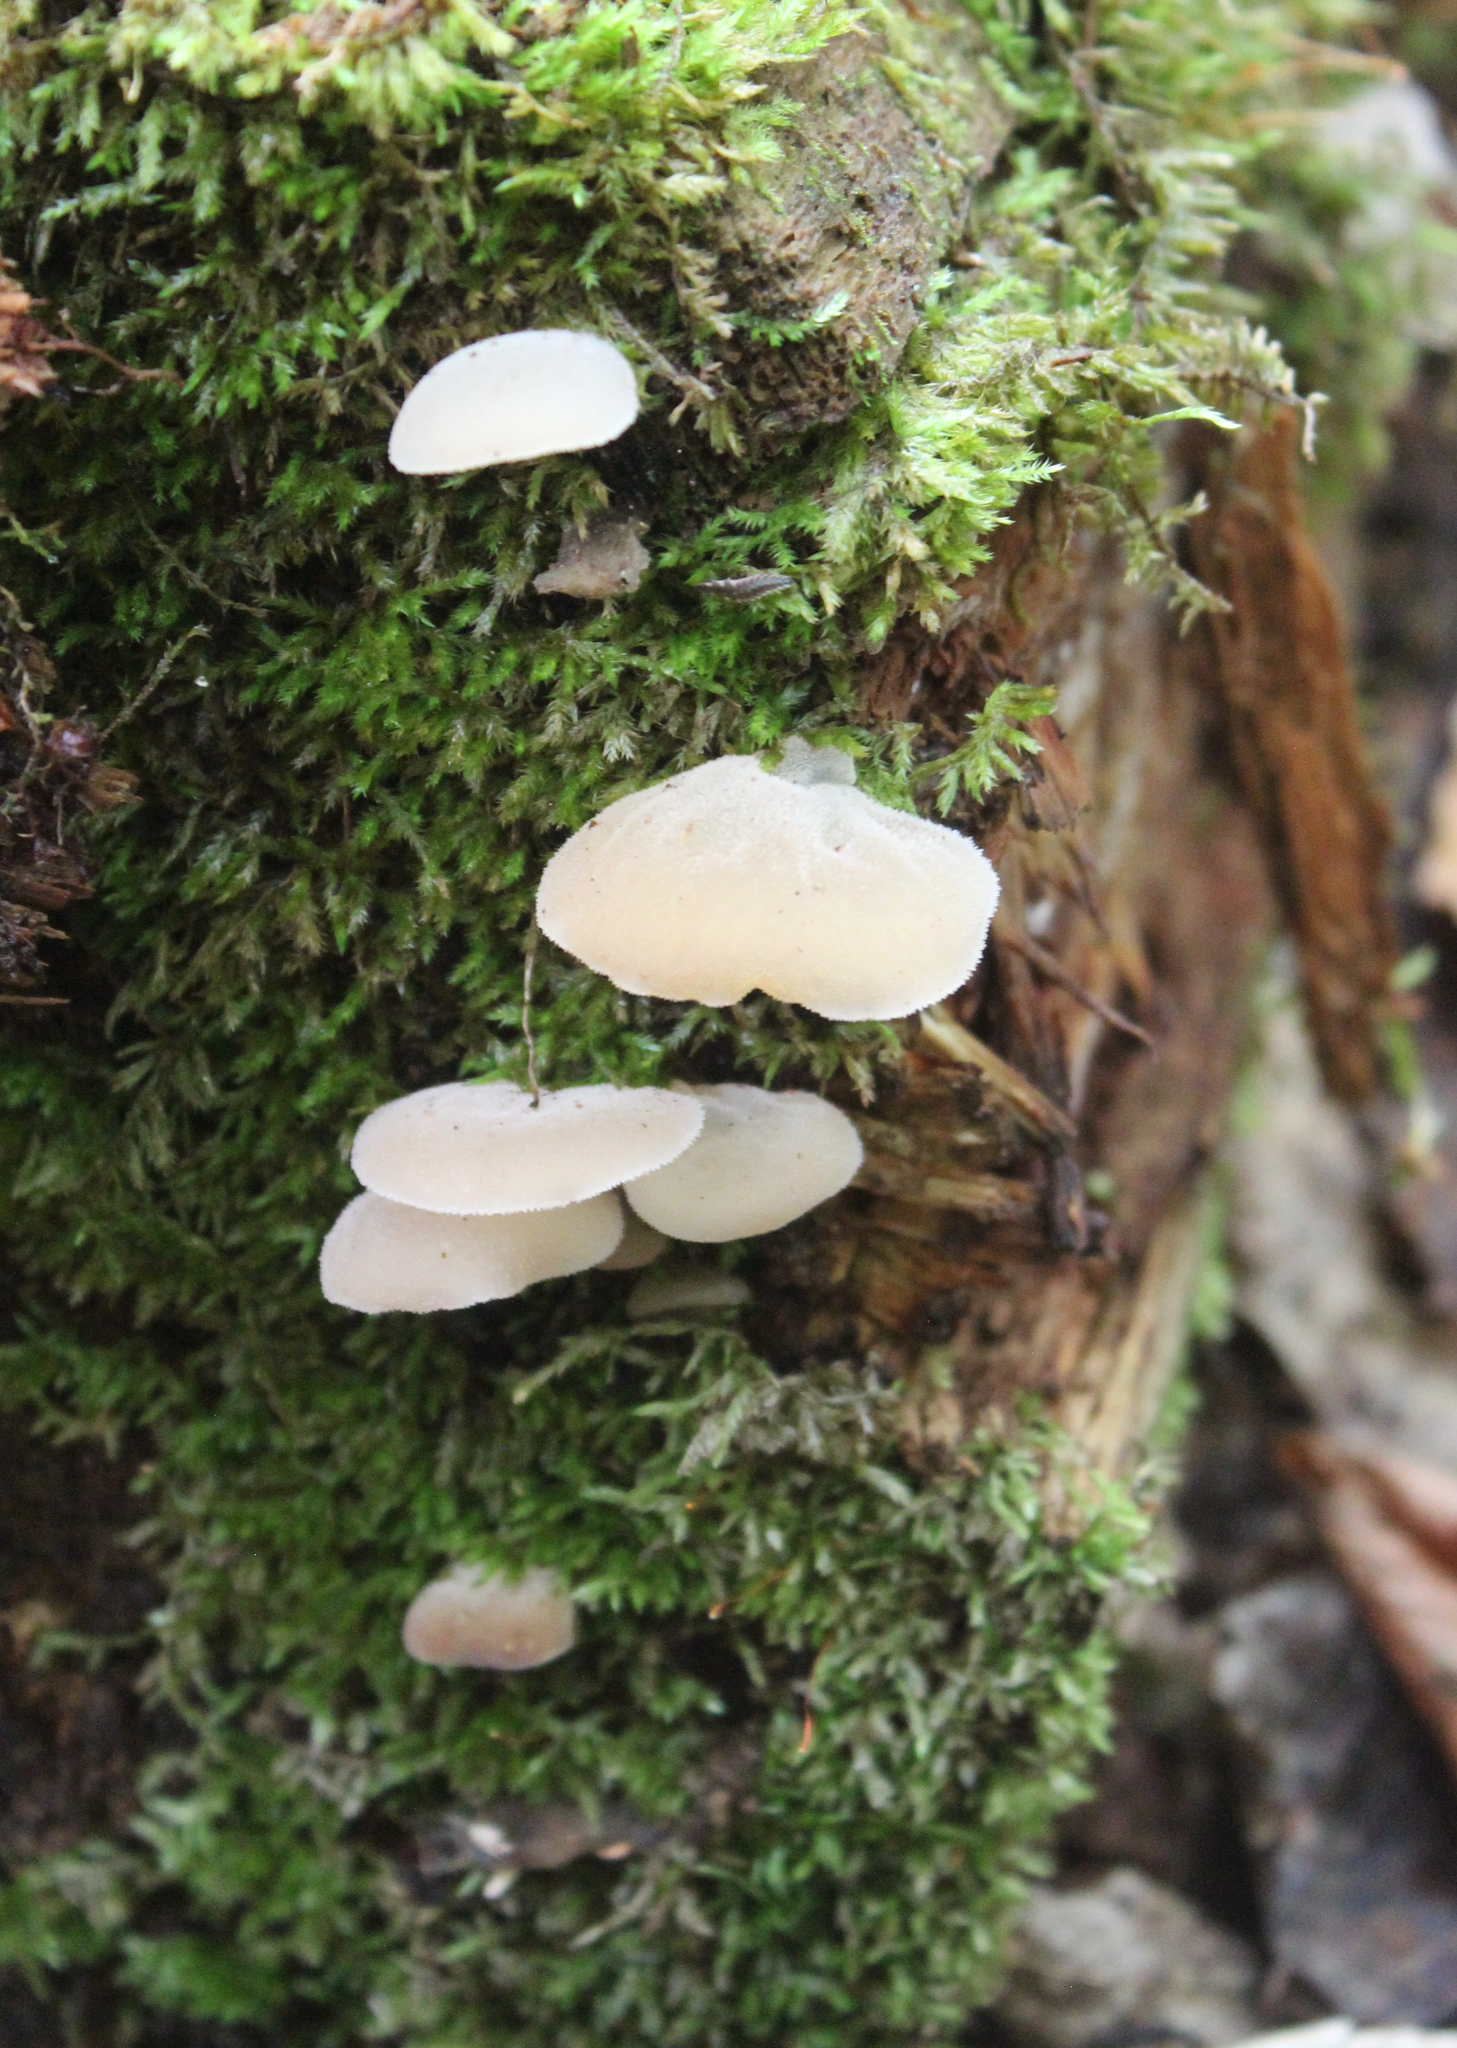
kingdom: Fungi
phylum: Basidiomycota
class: Agaricomycetes
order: Auriculariales
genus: Pseudohydnum
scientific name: Pseudohydnum gelatinosum
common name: Jelly tongue
